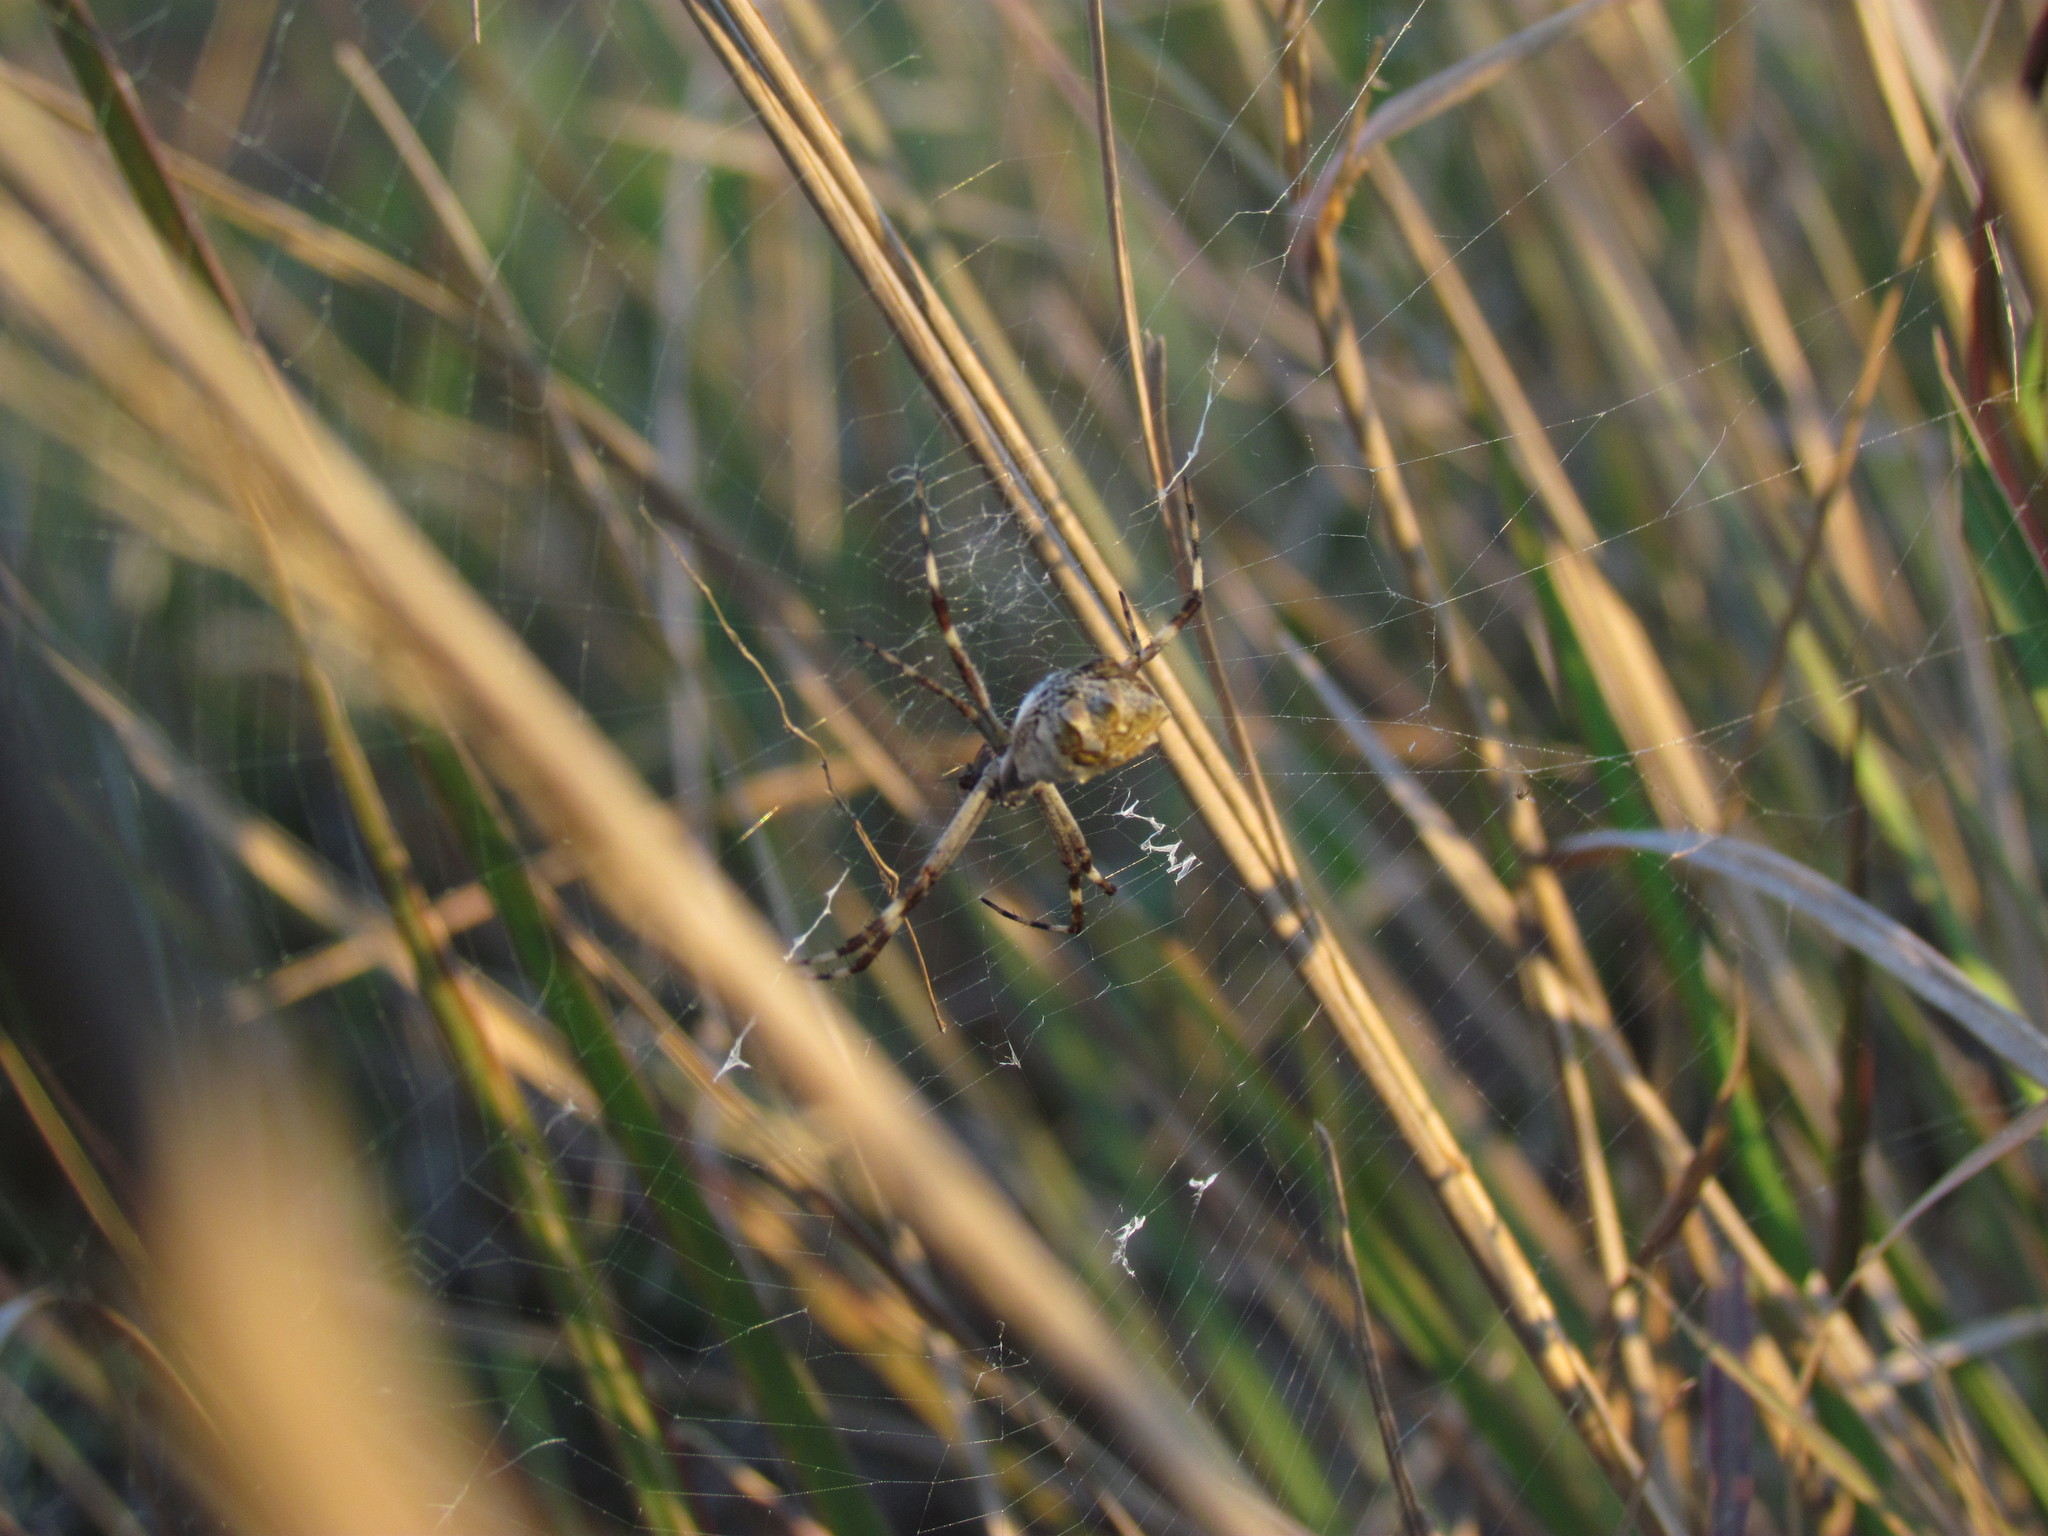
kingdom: Animalia
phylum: Arthropoda
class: Arachnida
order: Araneae
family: Araneidae
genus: Argiope
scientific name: Argiope argentata
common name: Orb weavers
